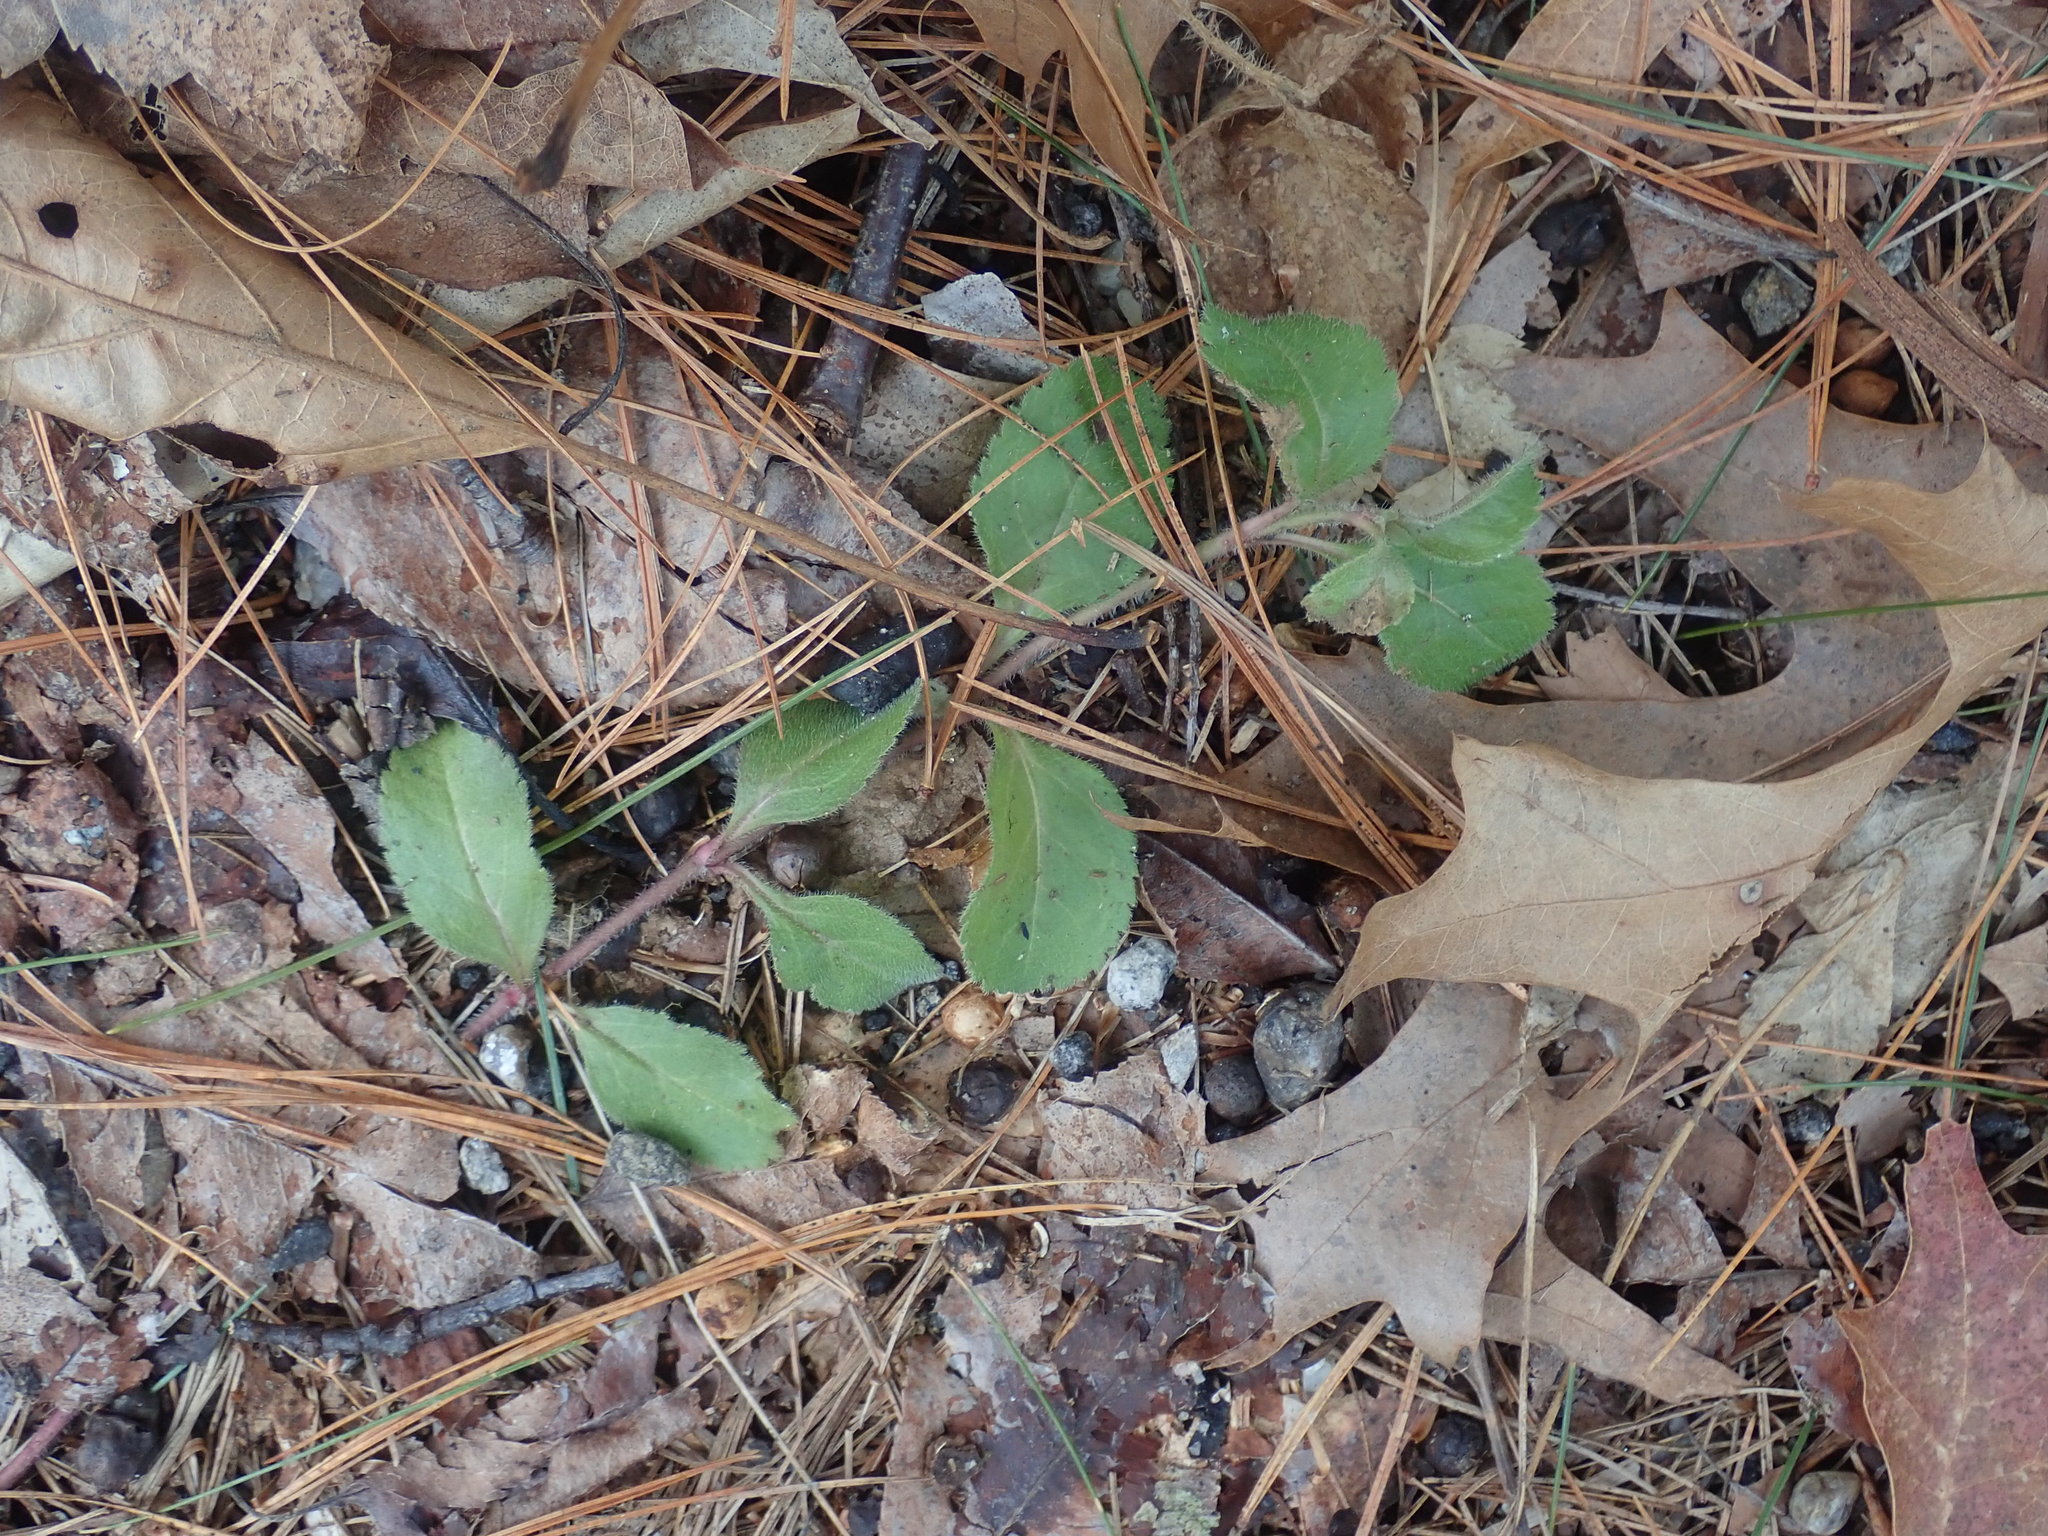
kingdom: Plantae
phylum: Tracheophyta
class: Magnoliopsida
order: Lamiales
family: Plantaginaceae
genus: Veronica
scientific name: Veronica officinalis
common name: Common speedwell
